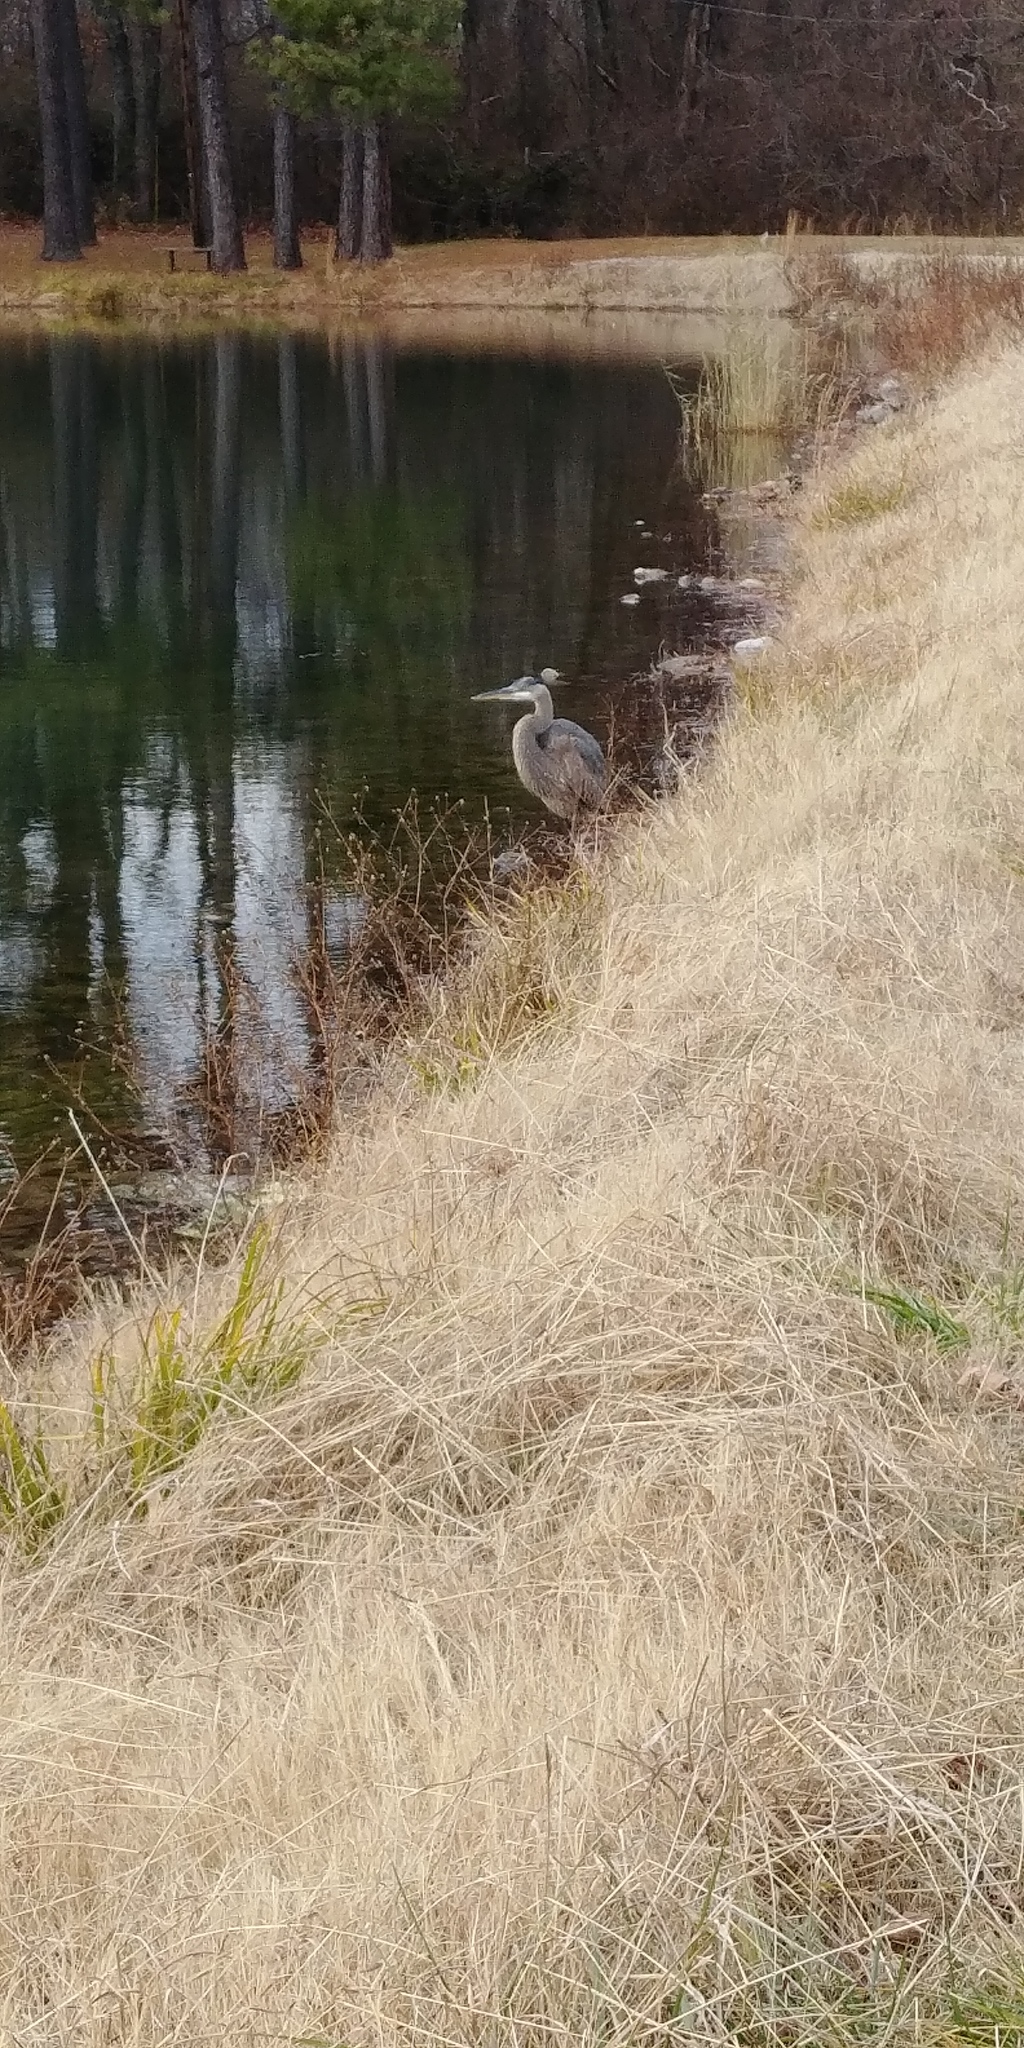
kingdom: Animalia
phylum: Chordata
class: Aves
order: Pelecaniformes
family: Ardeidae
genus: Ardea
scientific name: Ardea herodias
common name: Great blue heron
